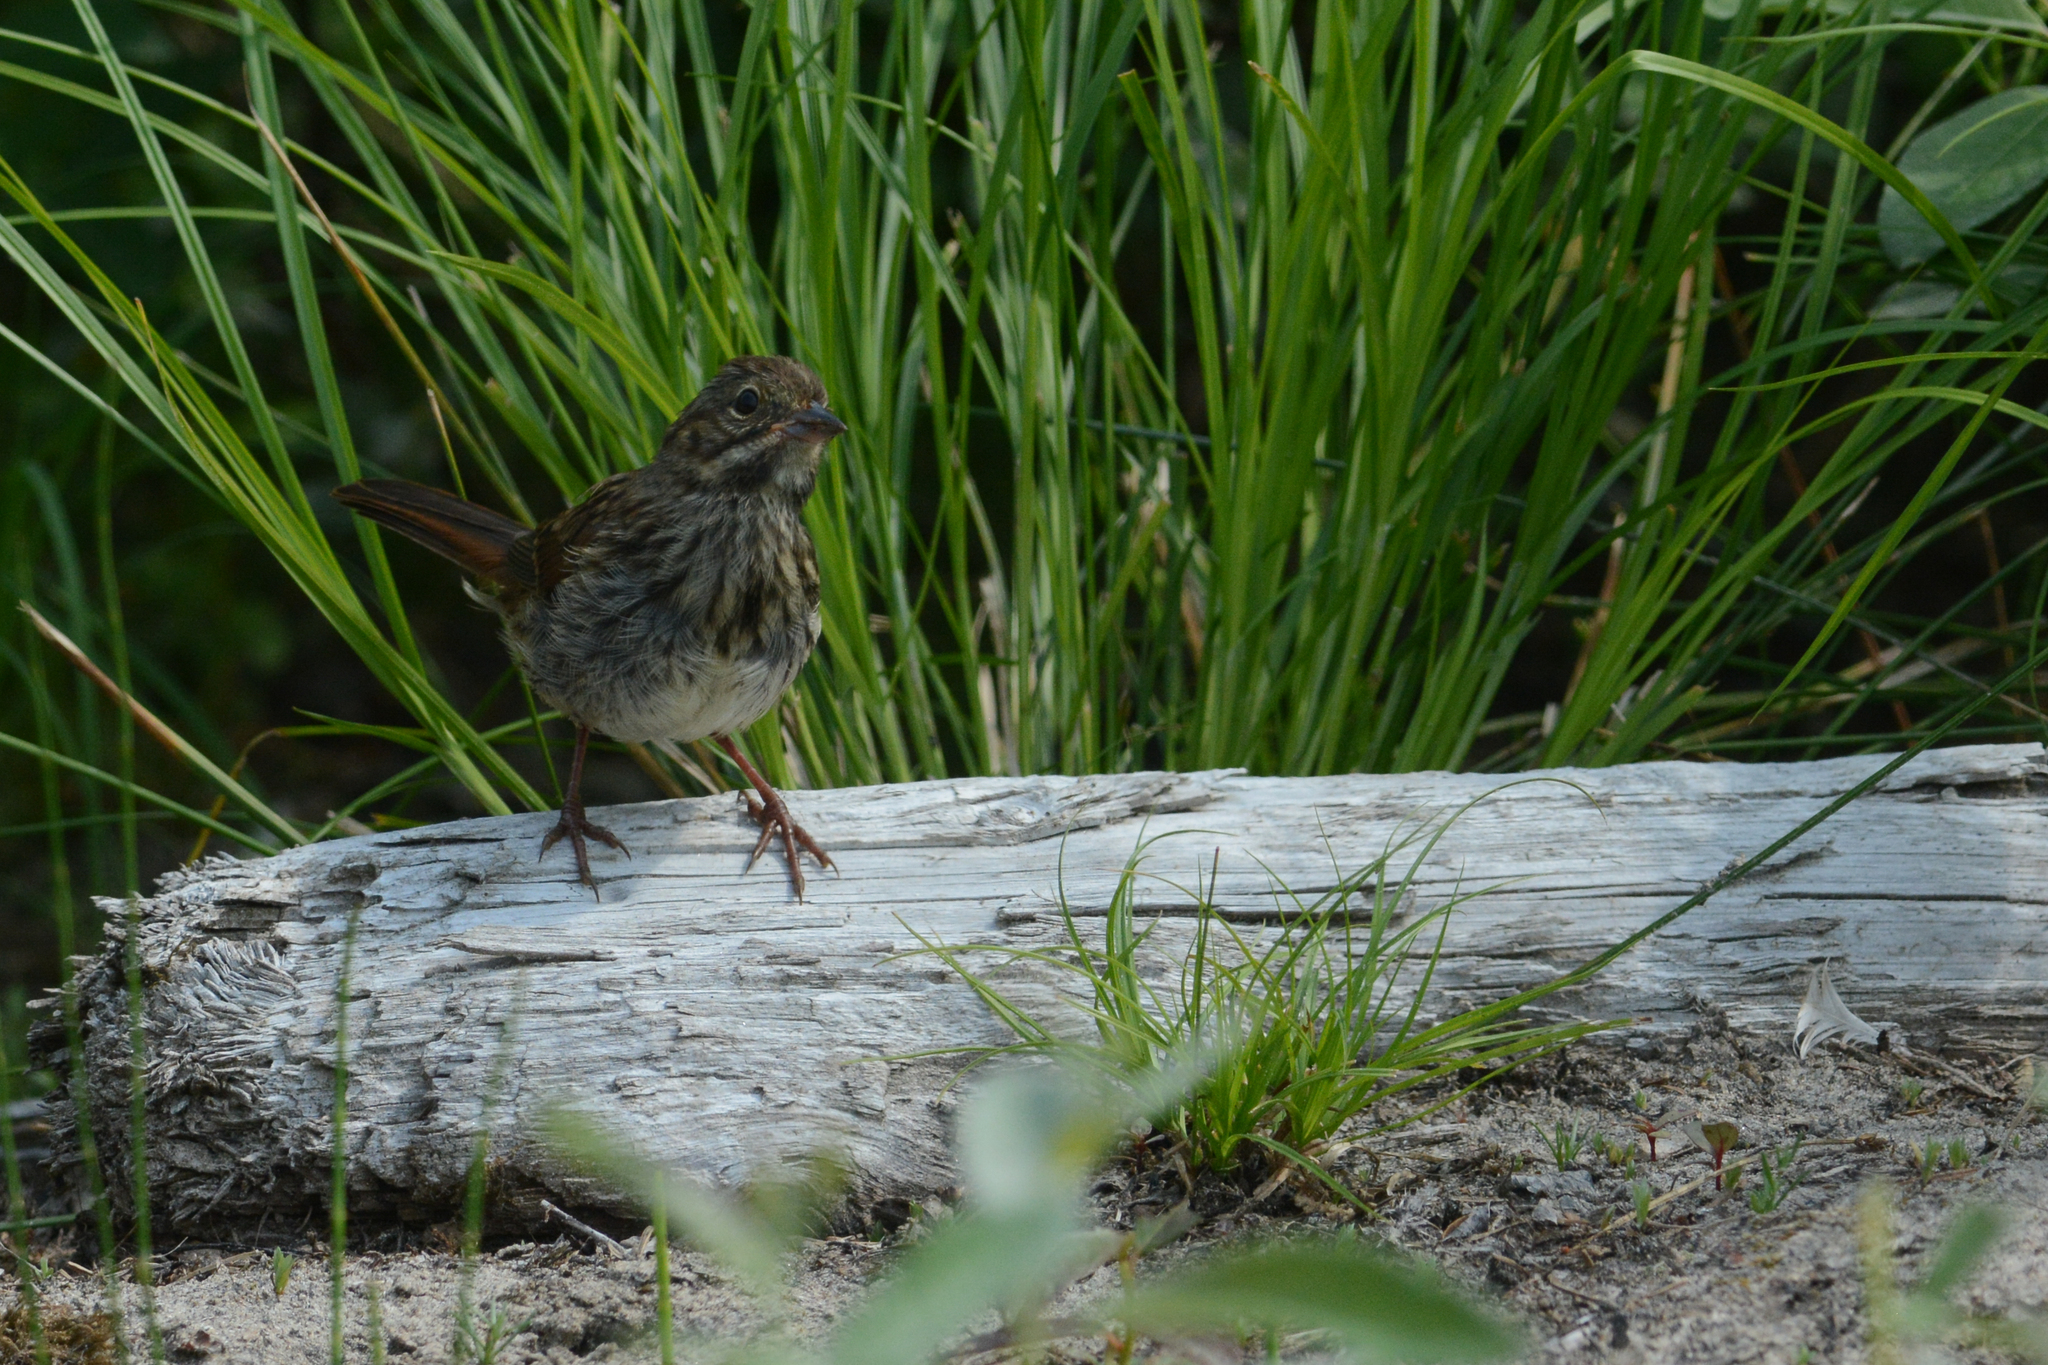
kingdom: Animalia
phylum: Chordata
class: Aves
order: Passeriformes
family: Passerellidae
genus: Melospiza
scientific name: Melospiza melodia
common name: Song sparrow
